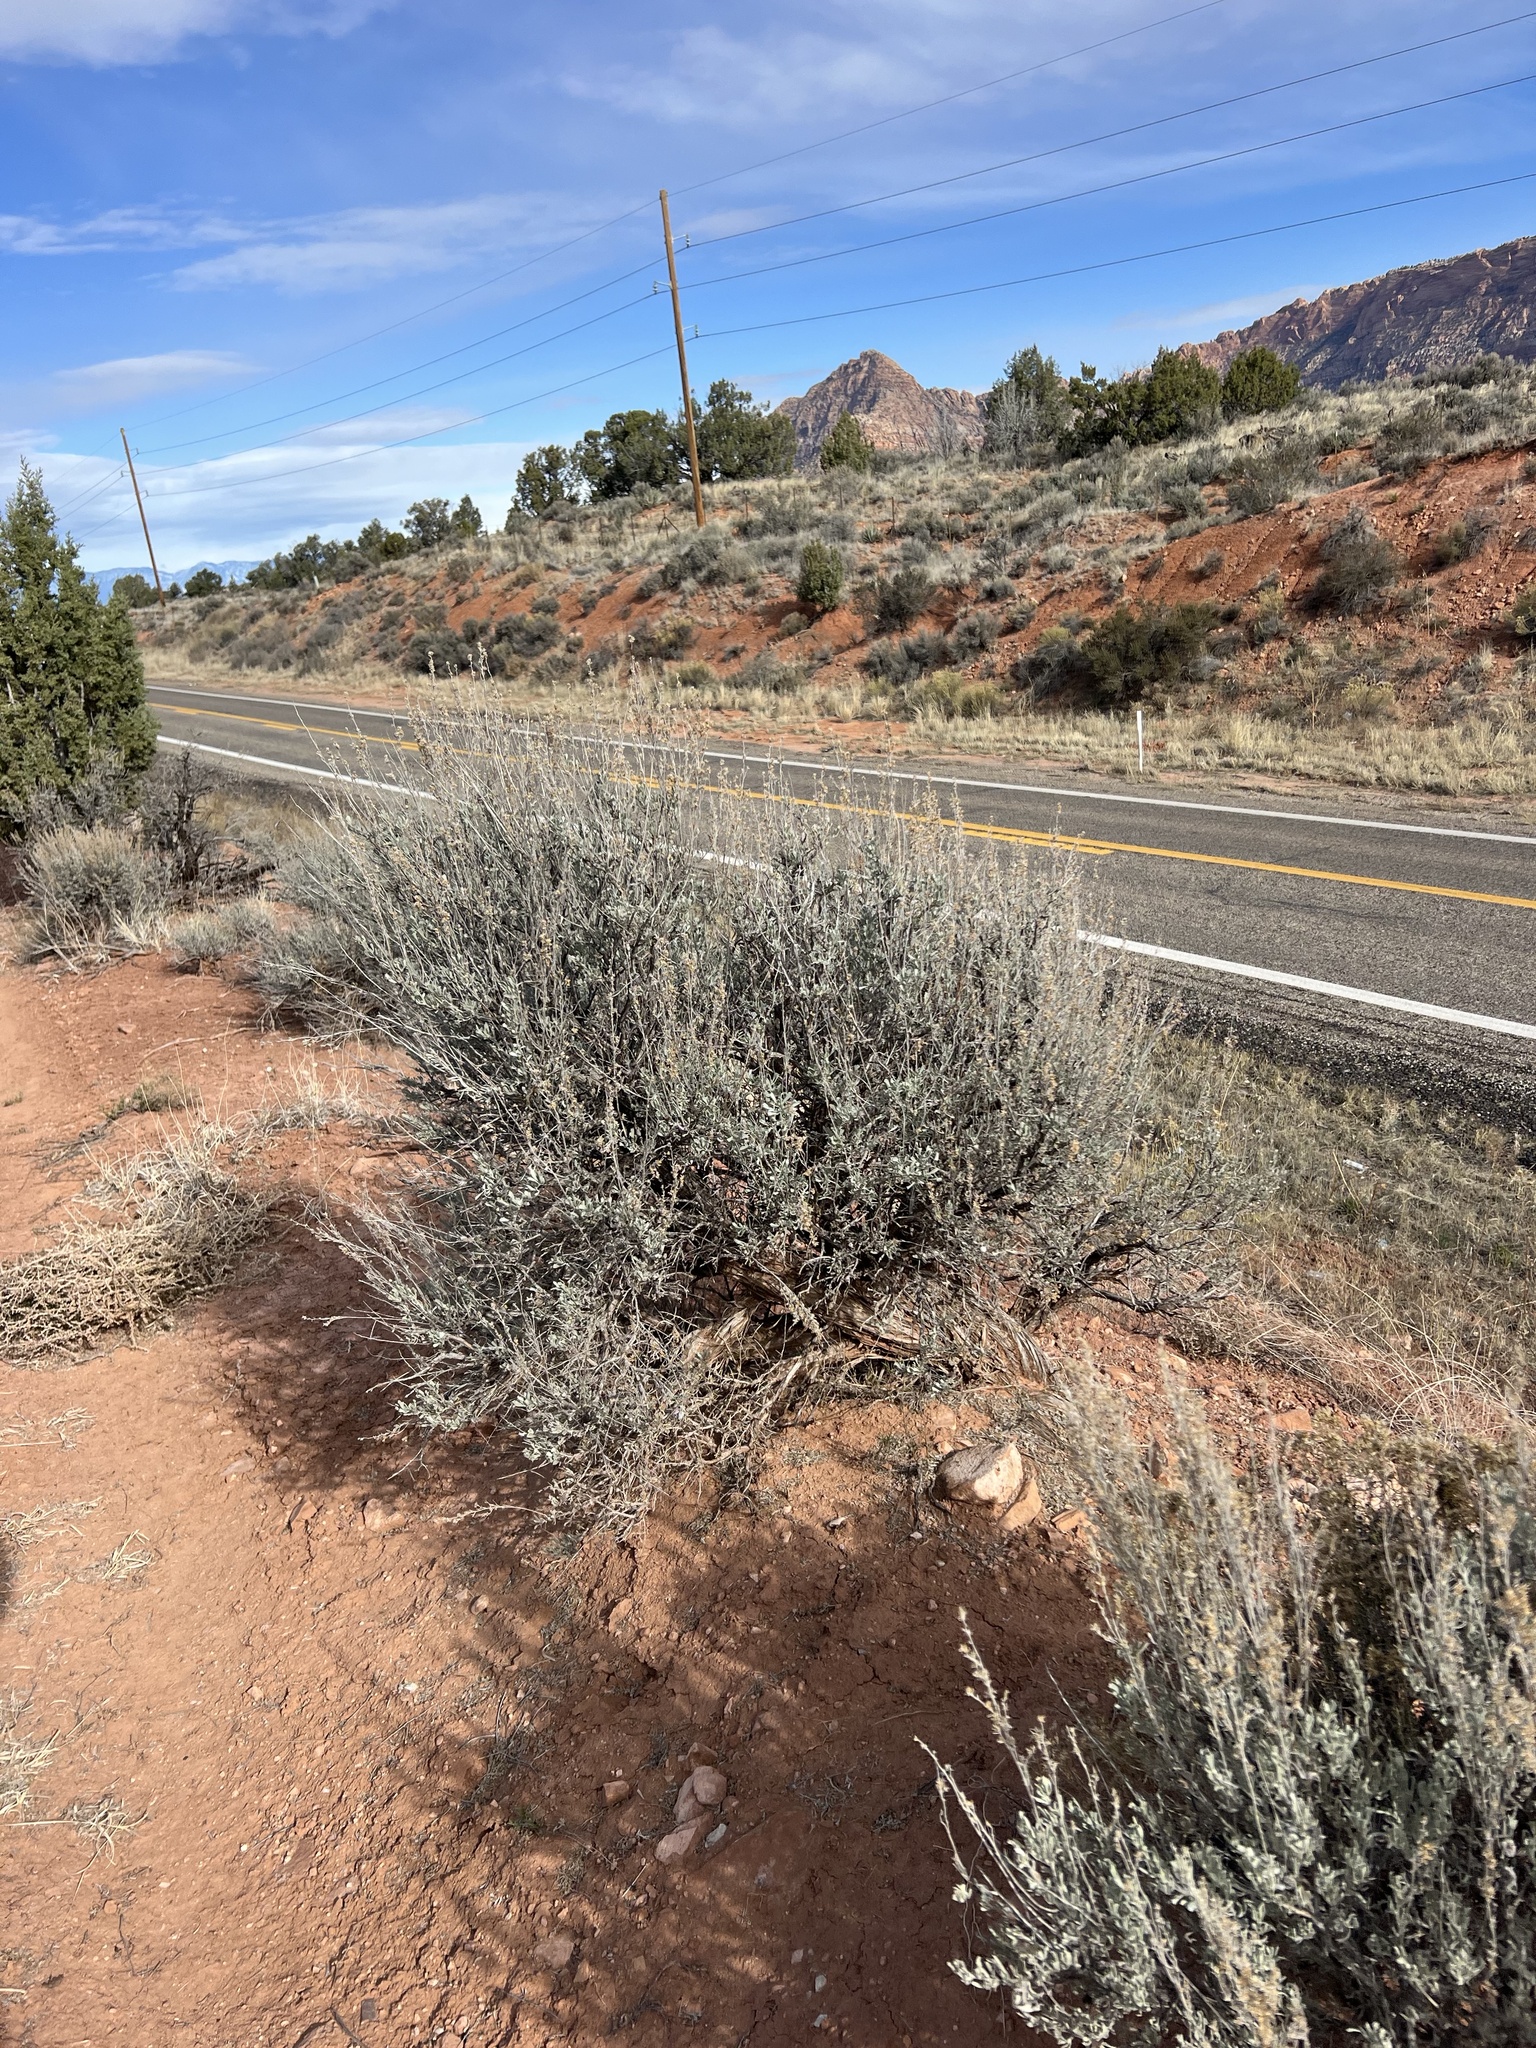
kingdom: Plantae
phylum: Tracheophyta
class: Magnoliopsida
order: Asterales
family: Asteraceae
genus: Artemisia
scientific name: Artemisia tridentata
